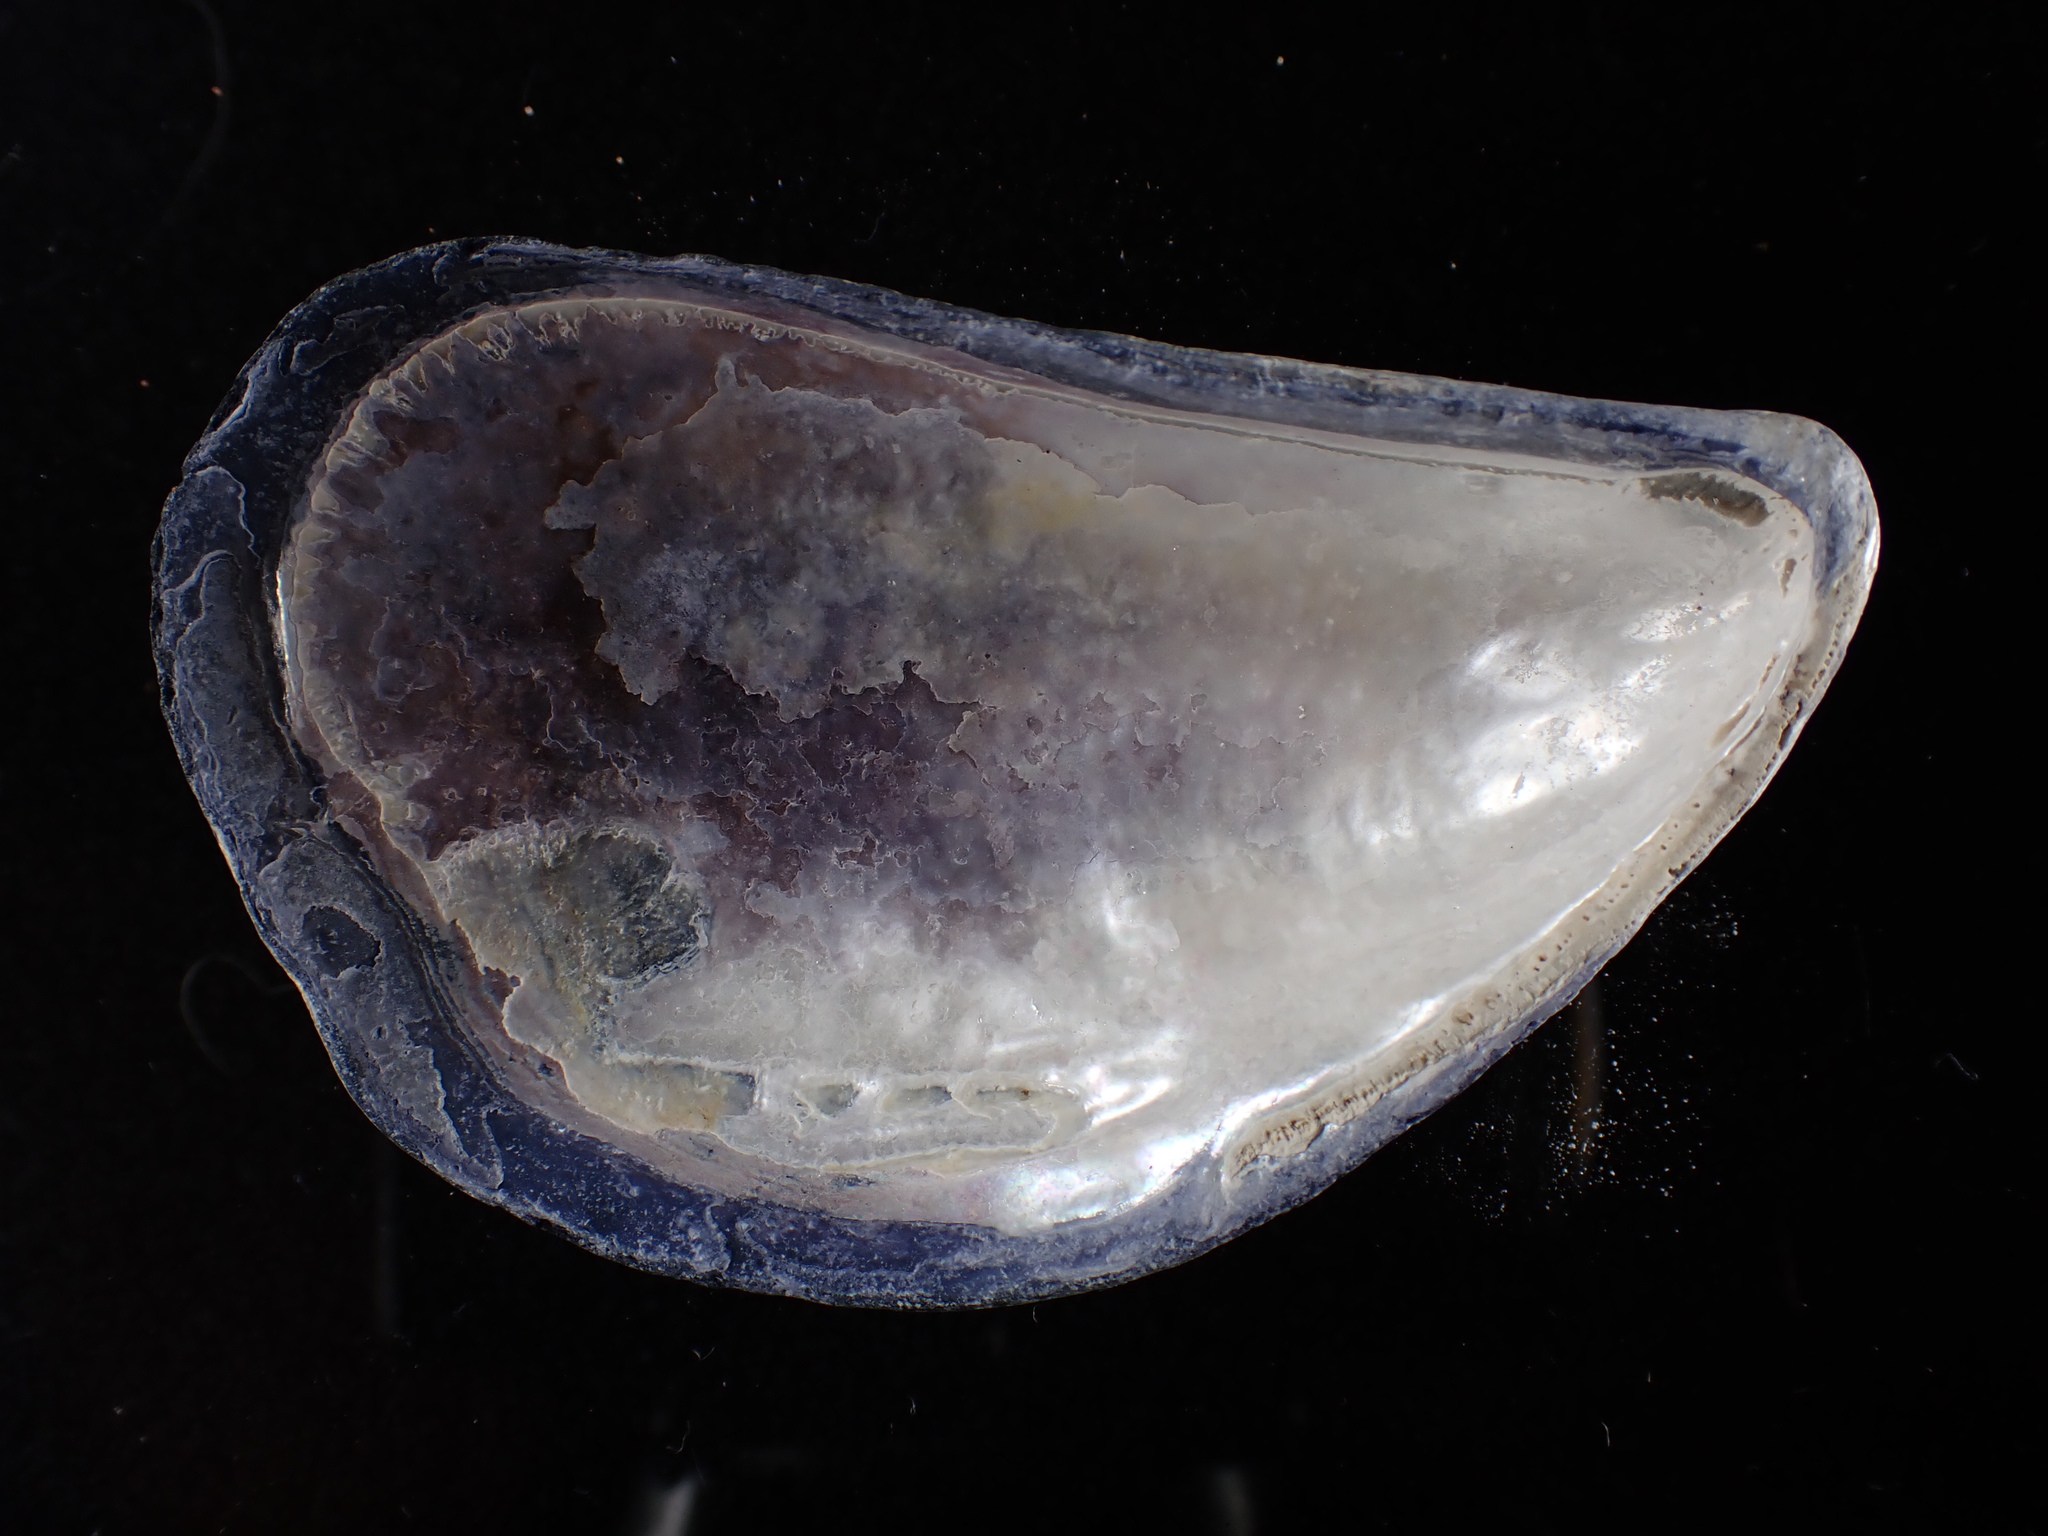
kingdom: Animalia
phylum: Mollusca
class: Bivalvia
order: Mytilida
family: Mytilidae
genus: Mytilus
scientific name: Mytilus edulis
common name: Blue mussel
